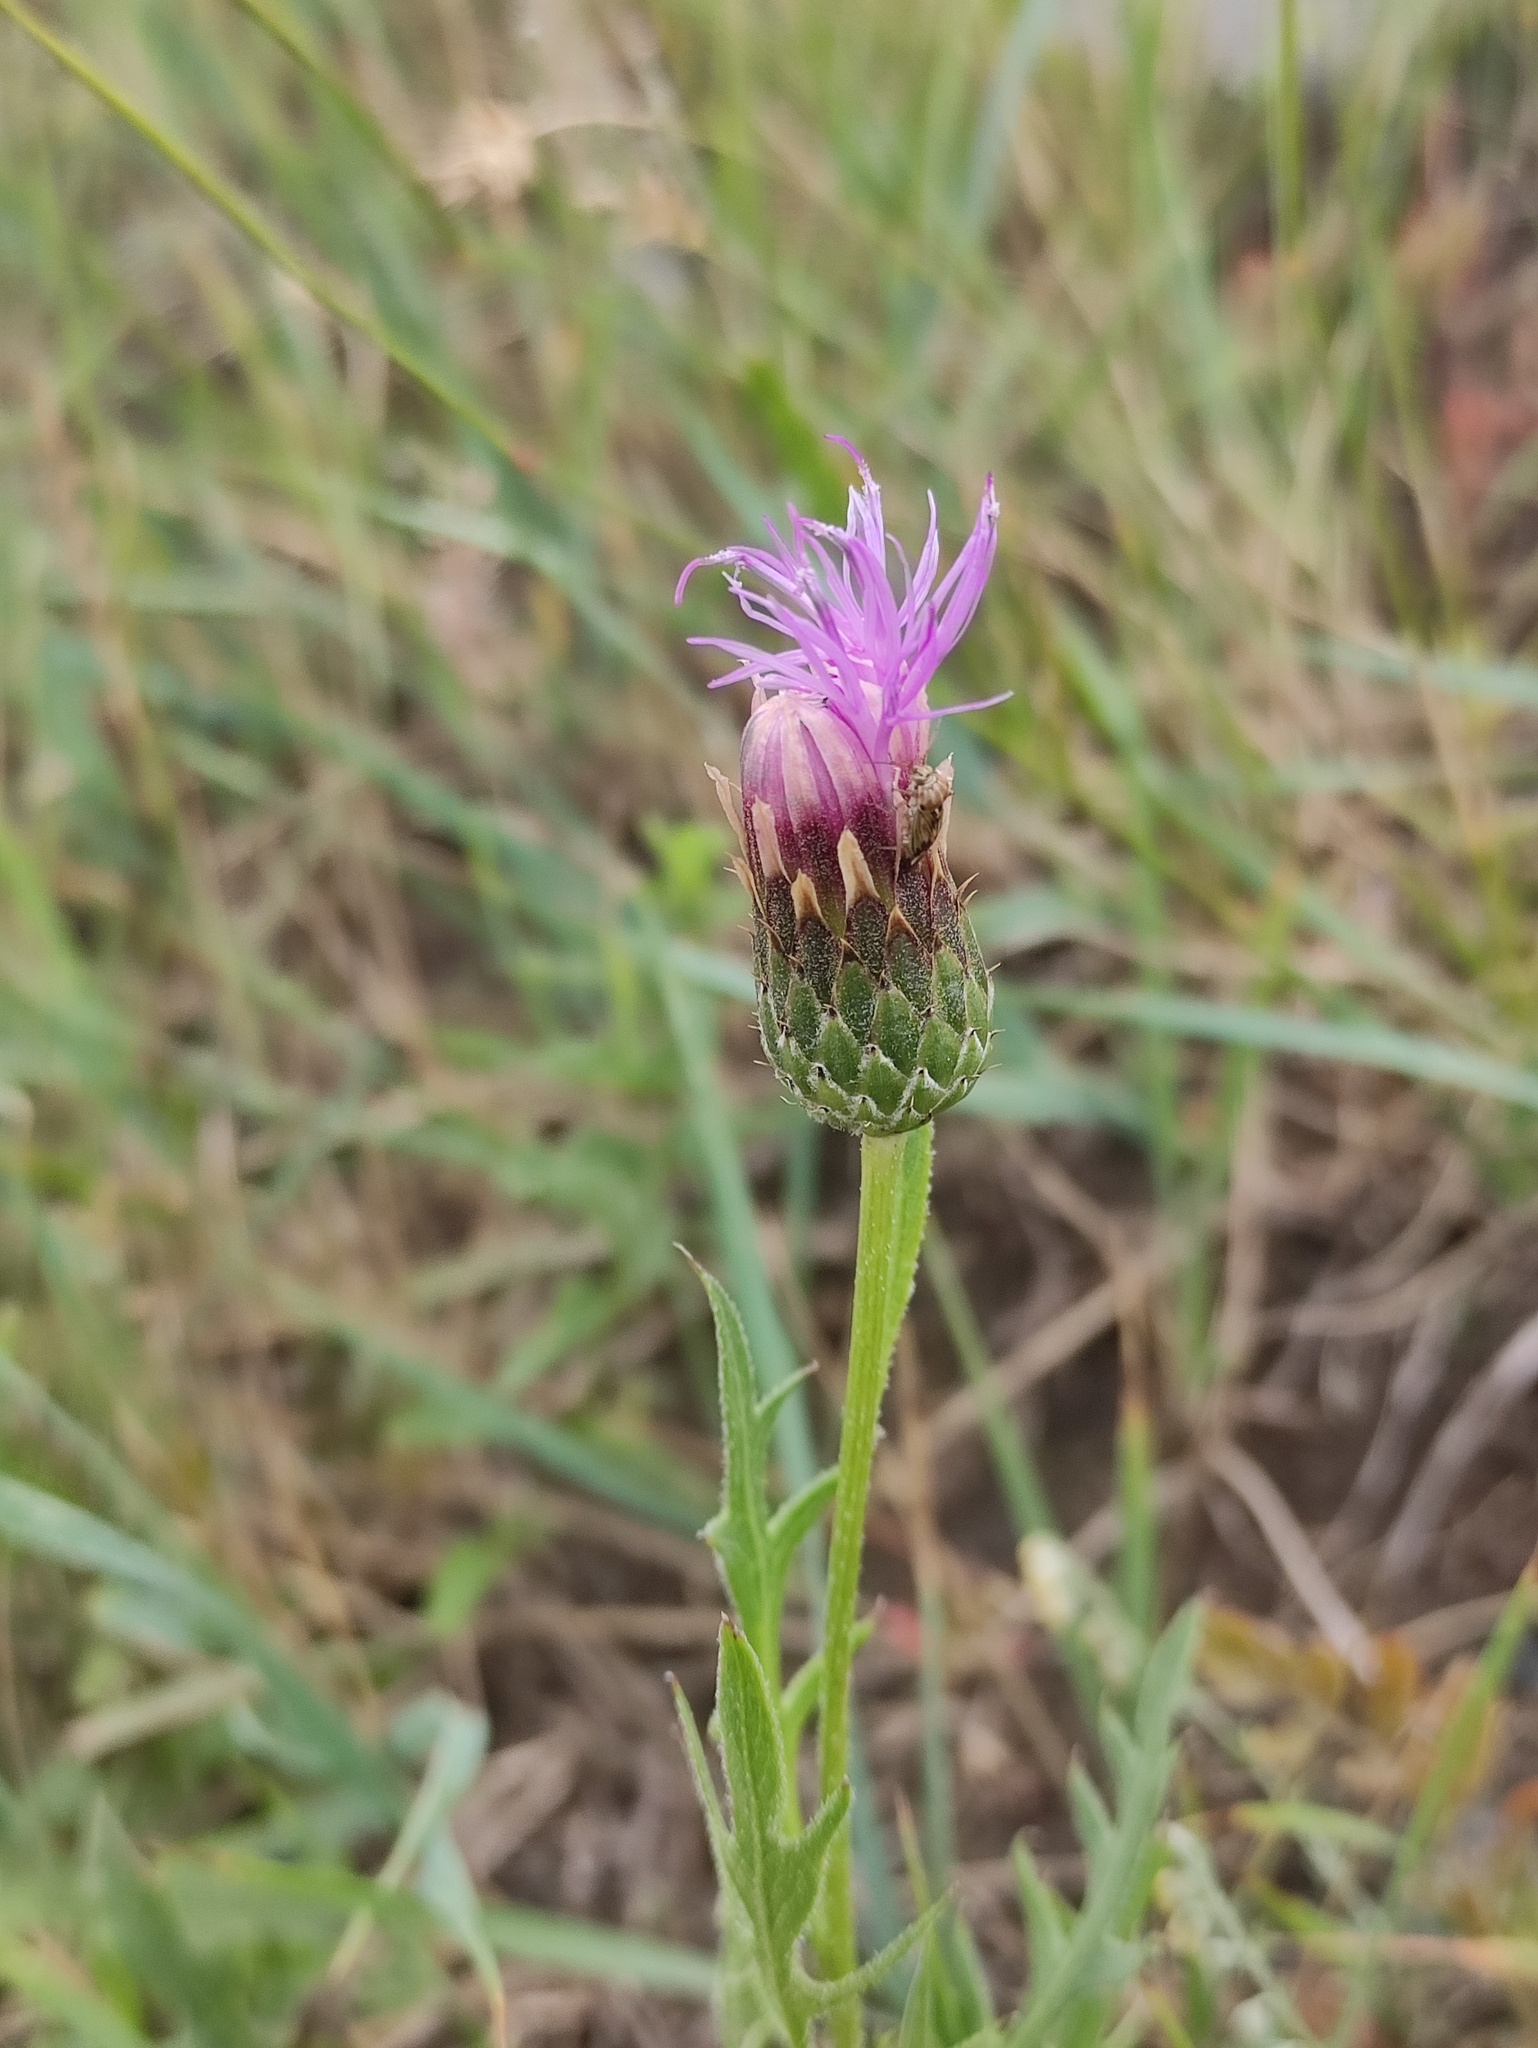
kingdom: Plantae
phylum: Tracheophyta
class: Magnoliopsida
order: Asterales
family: Asteraceae
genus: Klasea
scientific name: Klasea centauroides
